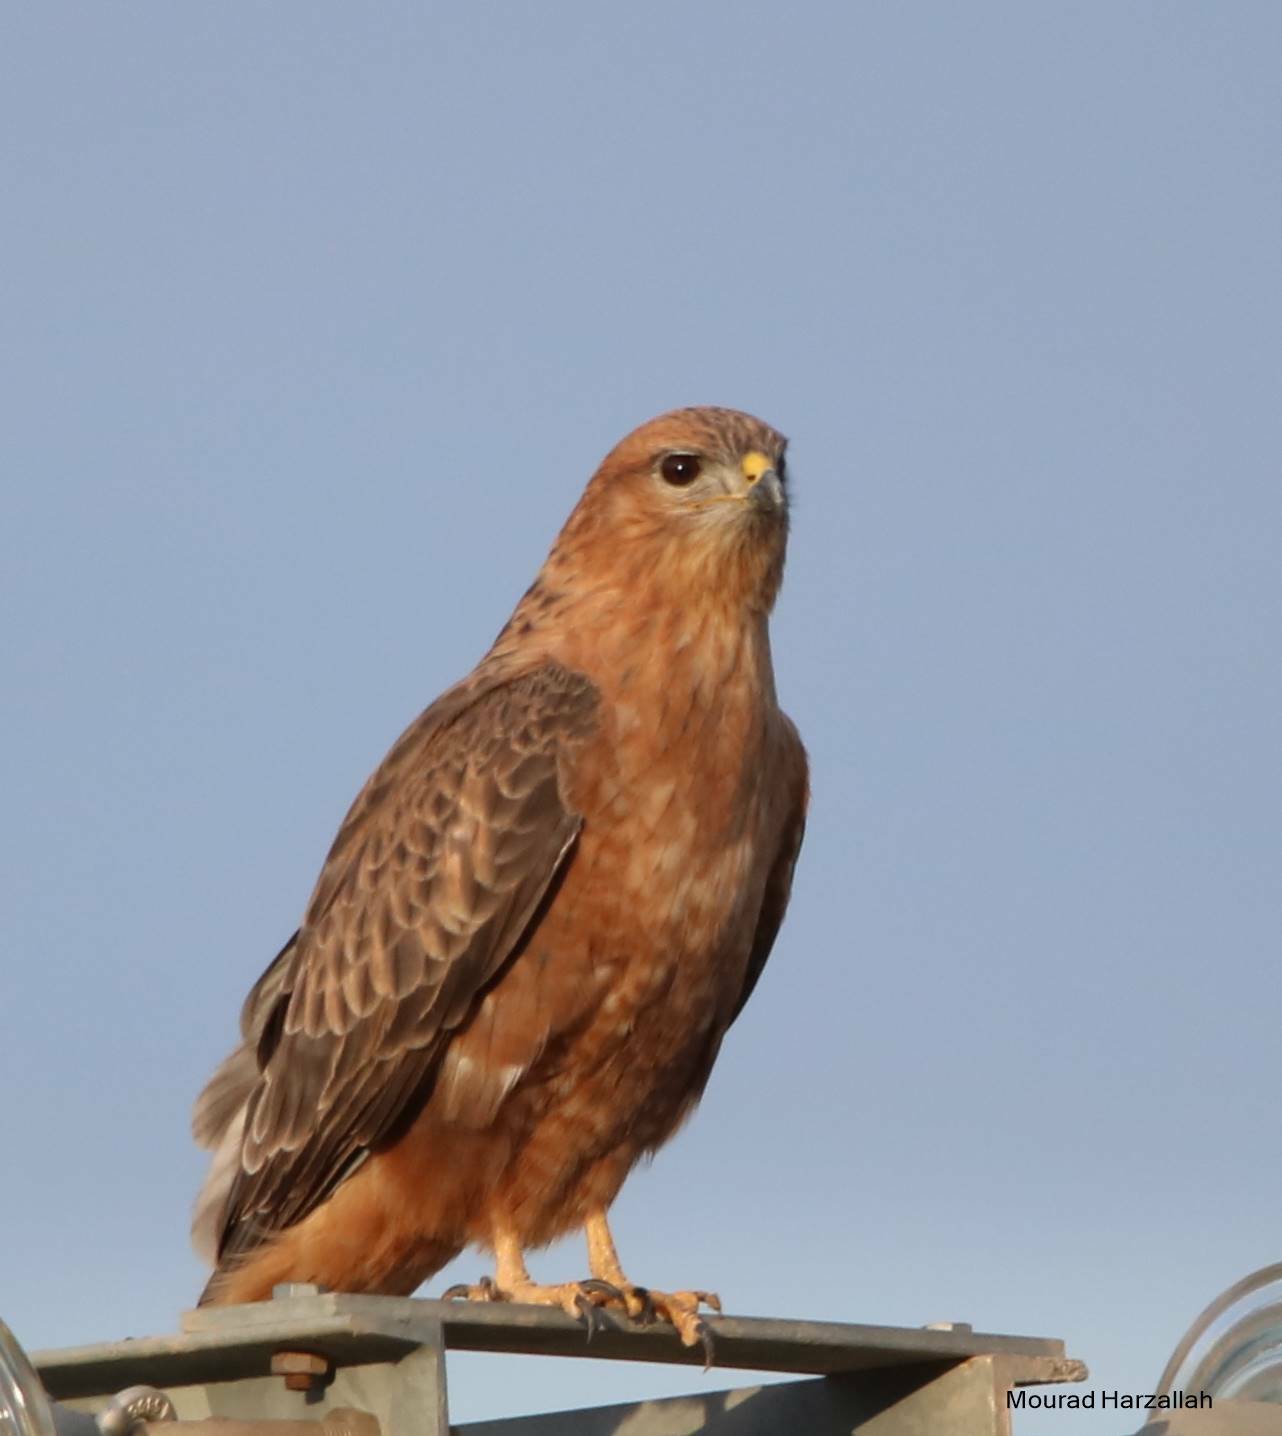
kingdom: Animalia
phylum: Chordata
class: Aves
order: Accipitriformes
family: Accipitridae
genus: Buteo
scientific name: Buteo rufinus
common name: Long-legged buzzard
